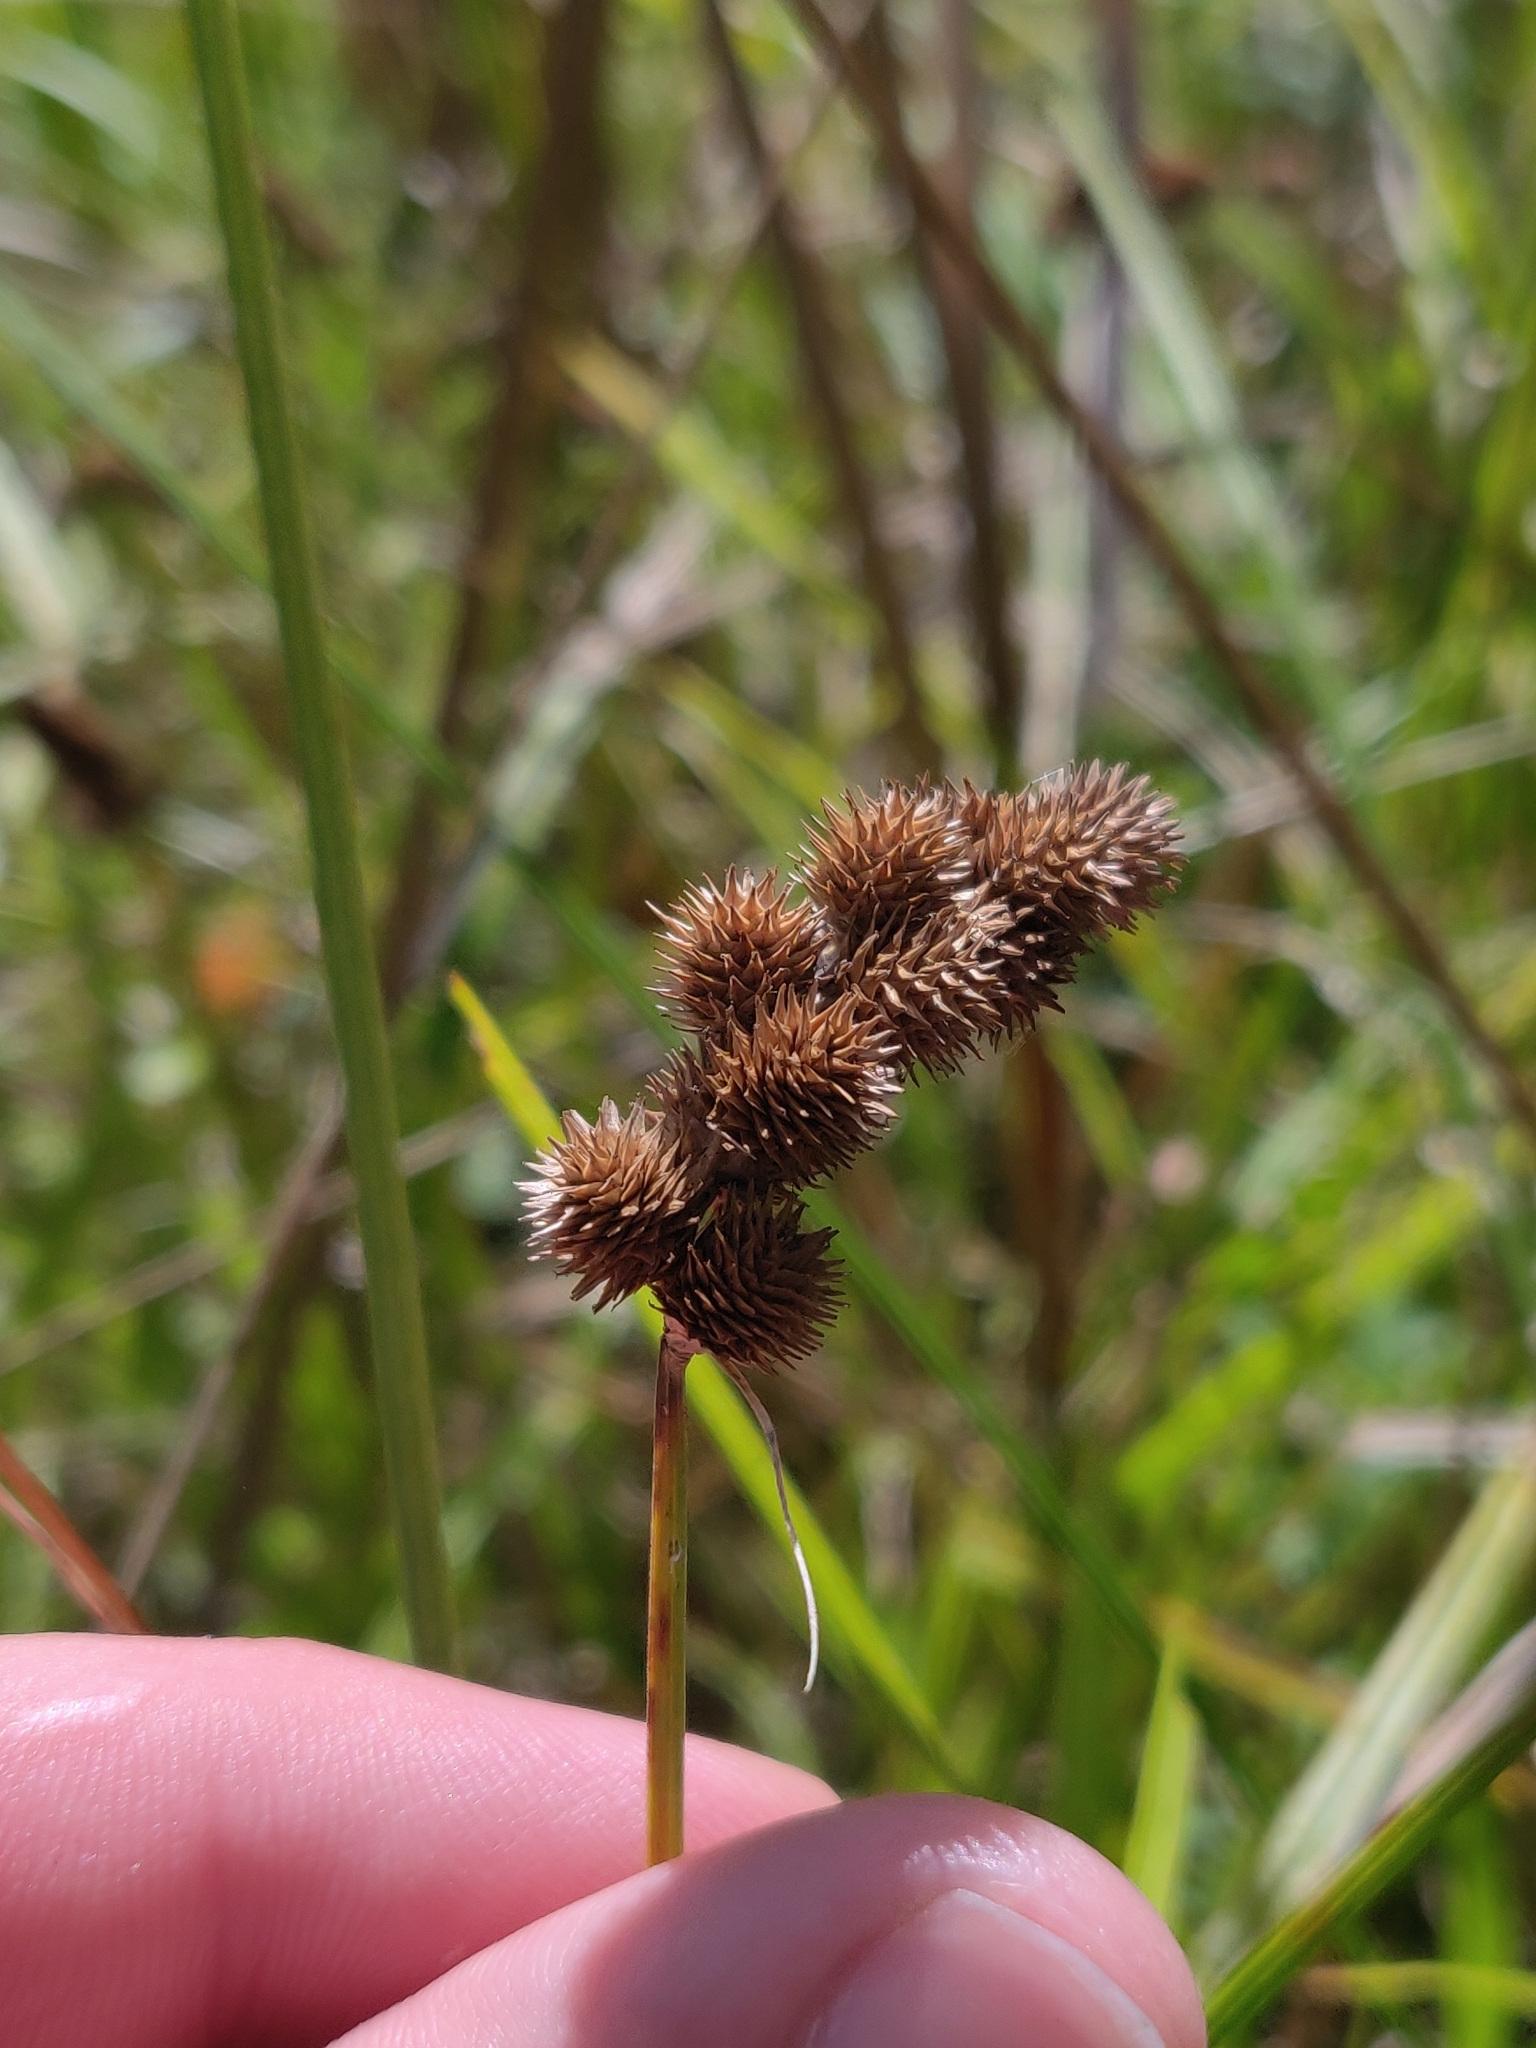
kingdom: Plantae
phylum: Tracheophyta
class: Liliopsida
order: Poales
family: Cyperaceae
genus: Carex
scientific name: Carex cristatella
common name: Crested oval sedge
